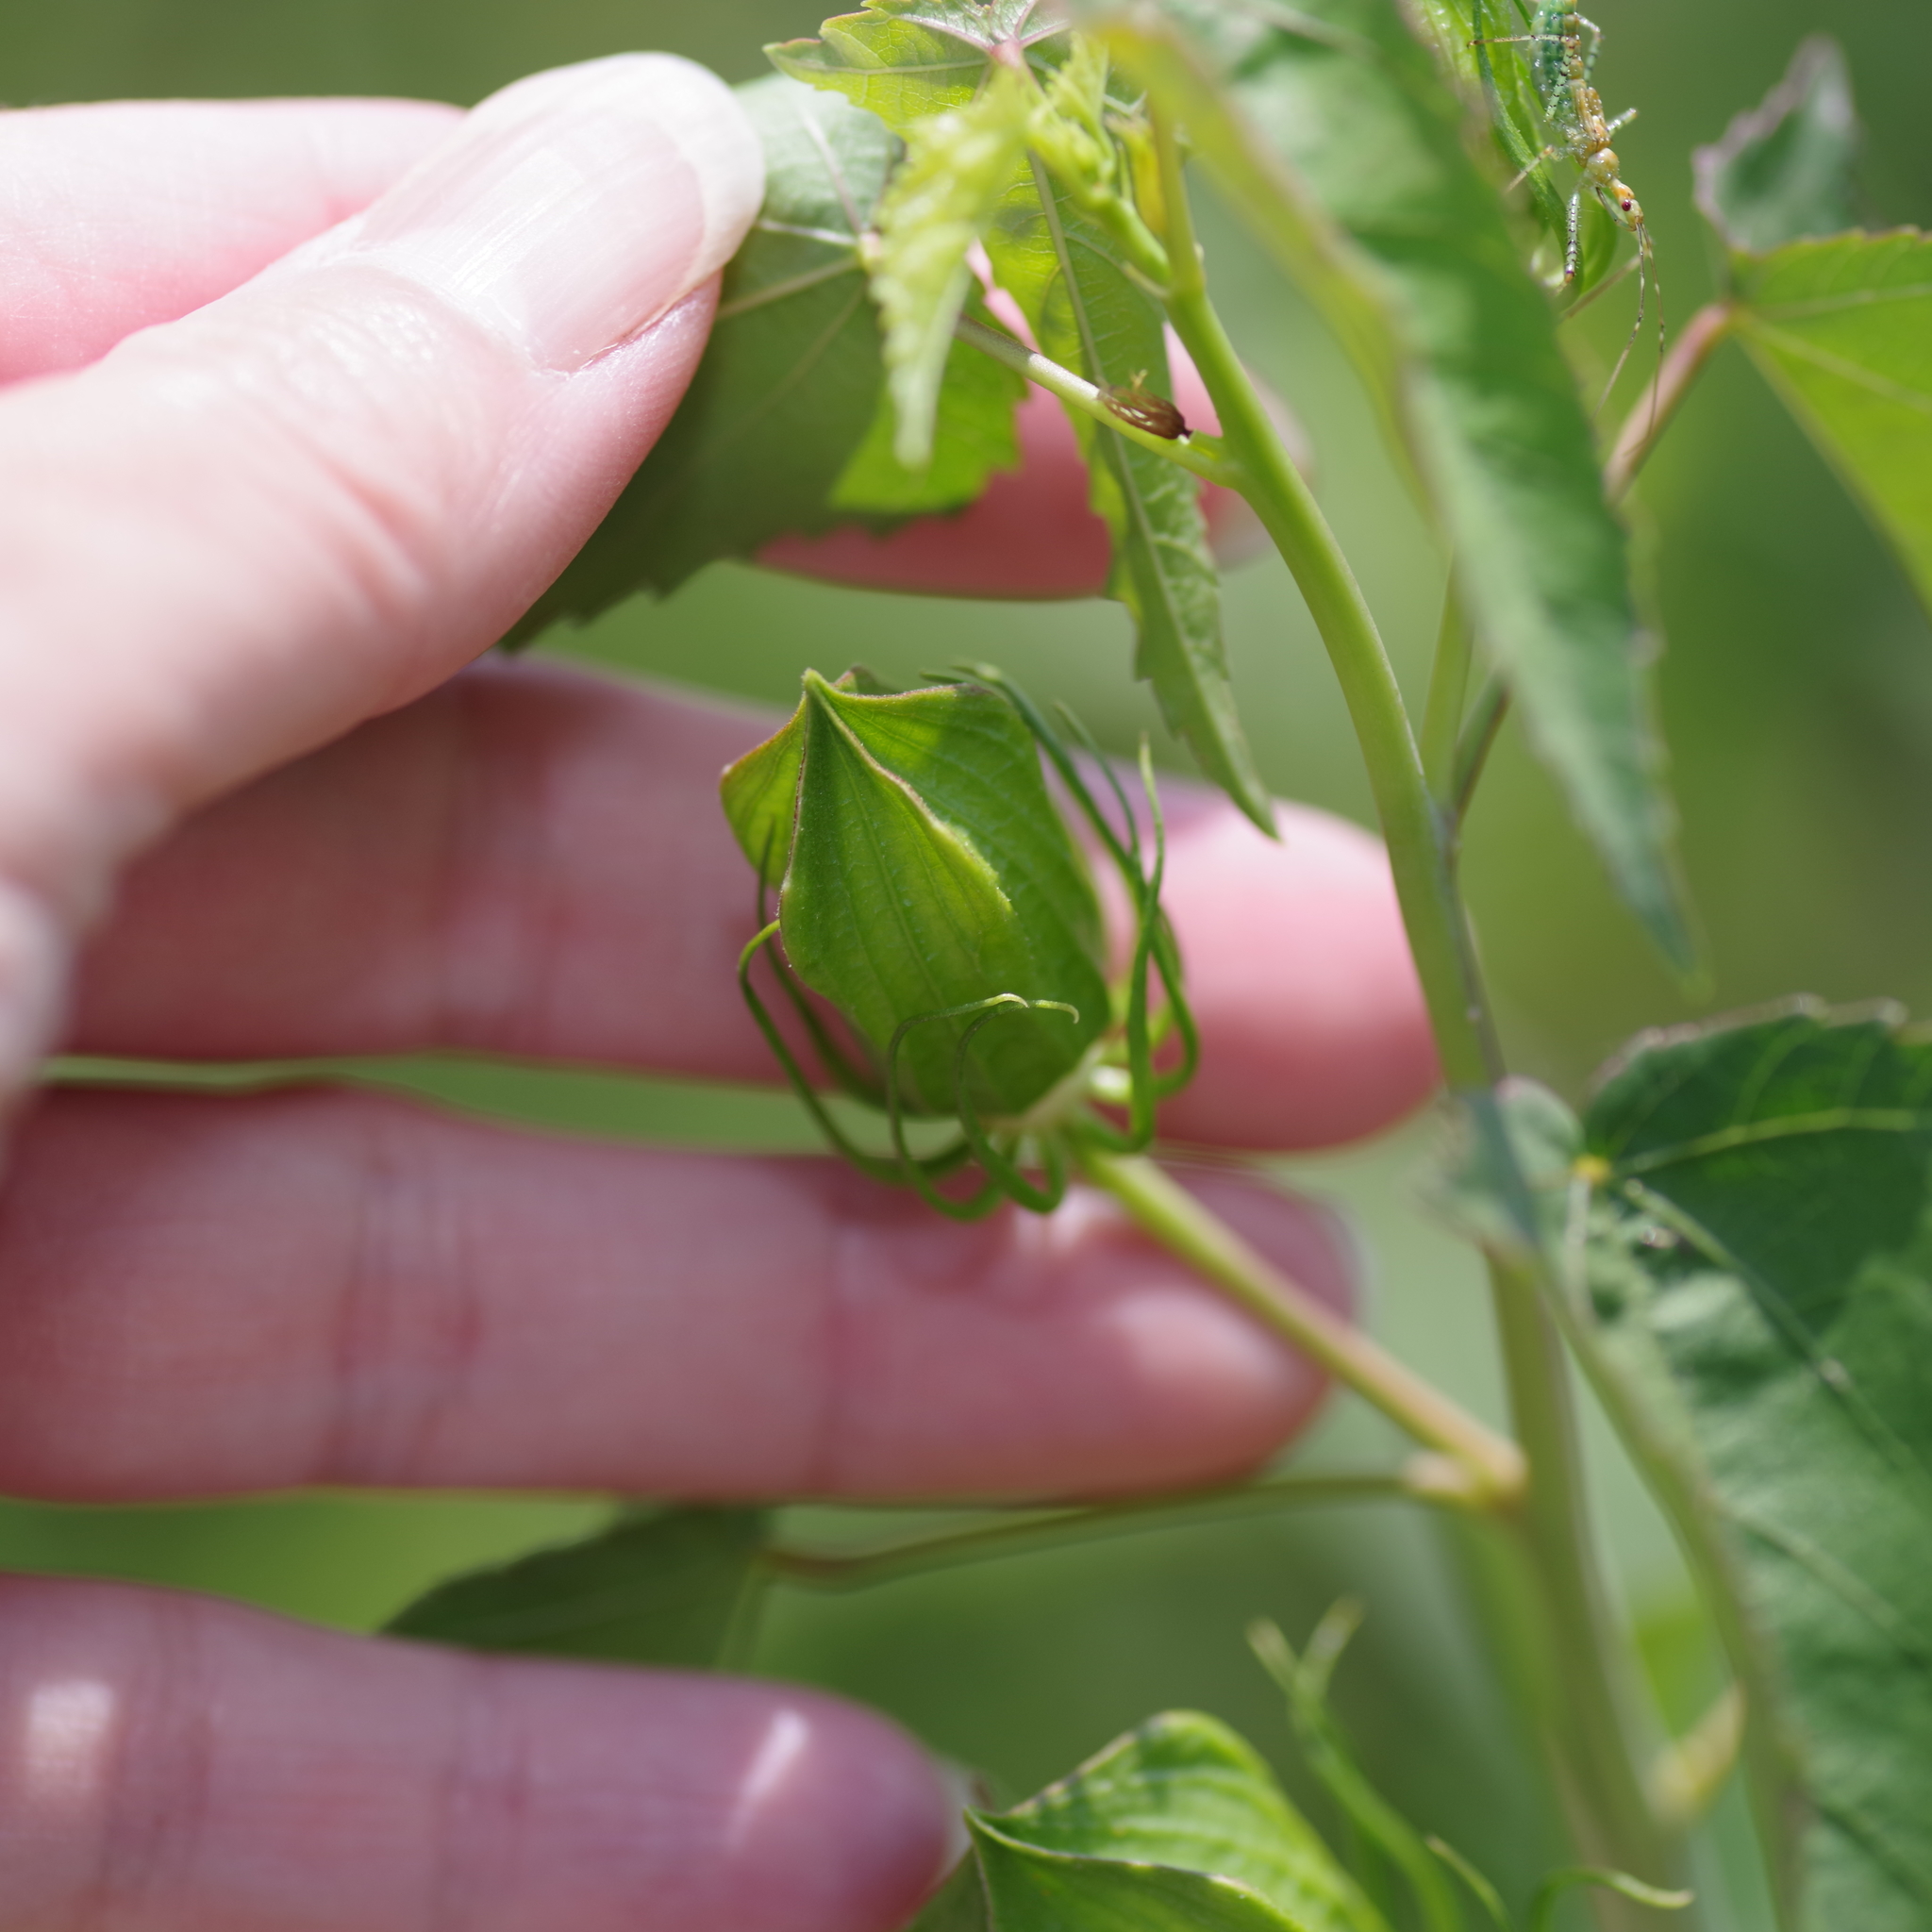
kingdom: Plantae
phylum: Tracheophyta
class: Magnoliopsida
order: Malvales
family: Malvaceae
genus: Hibiscus
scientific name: Hibiscus laevis
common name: Scarlet rose-mallow
